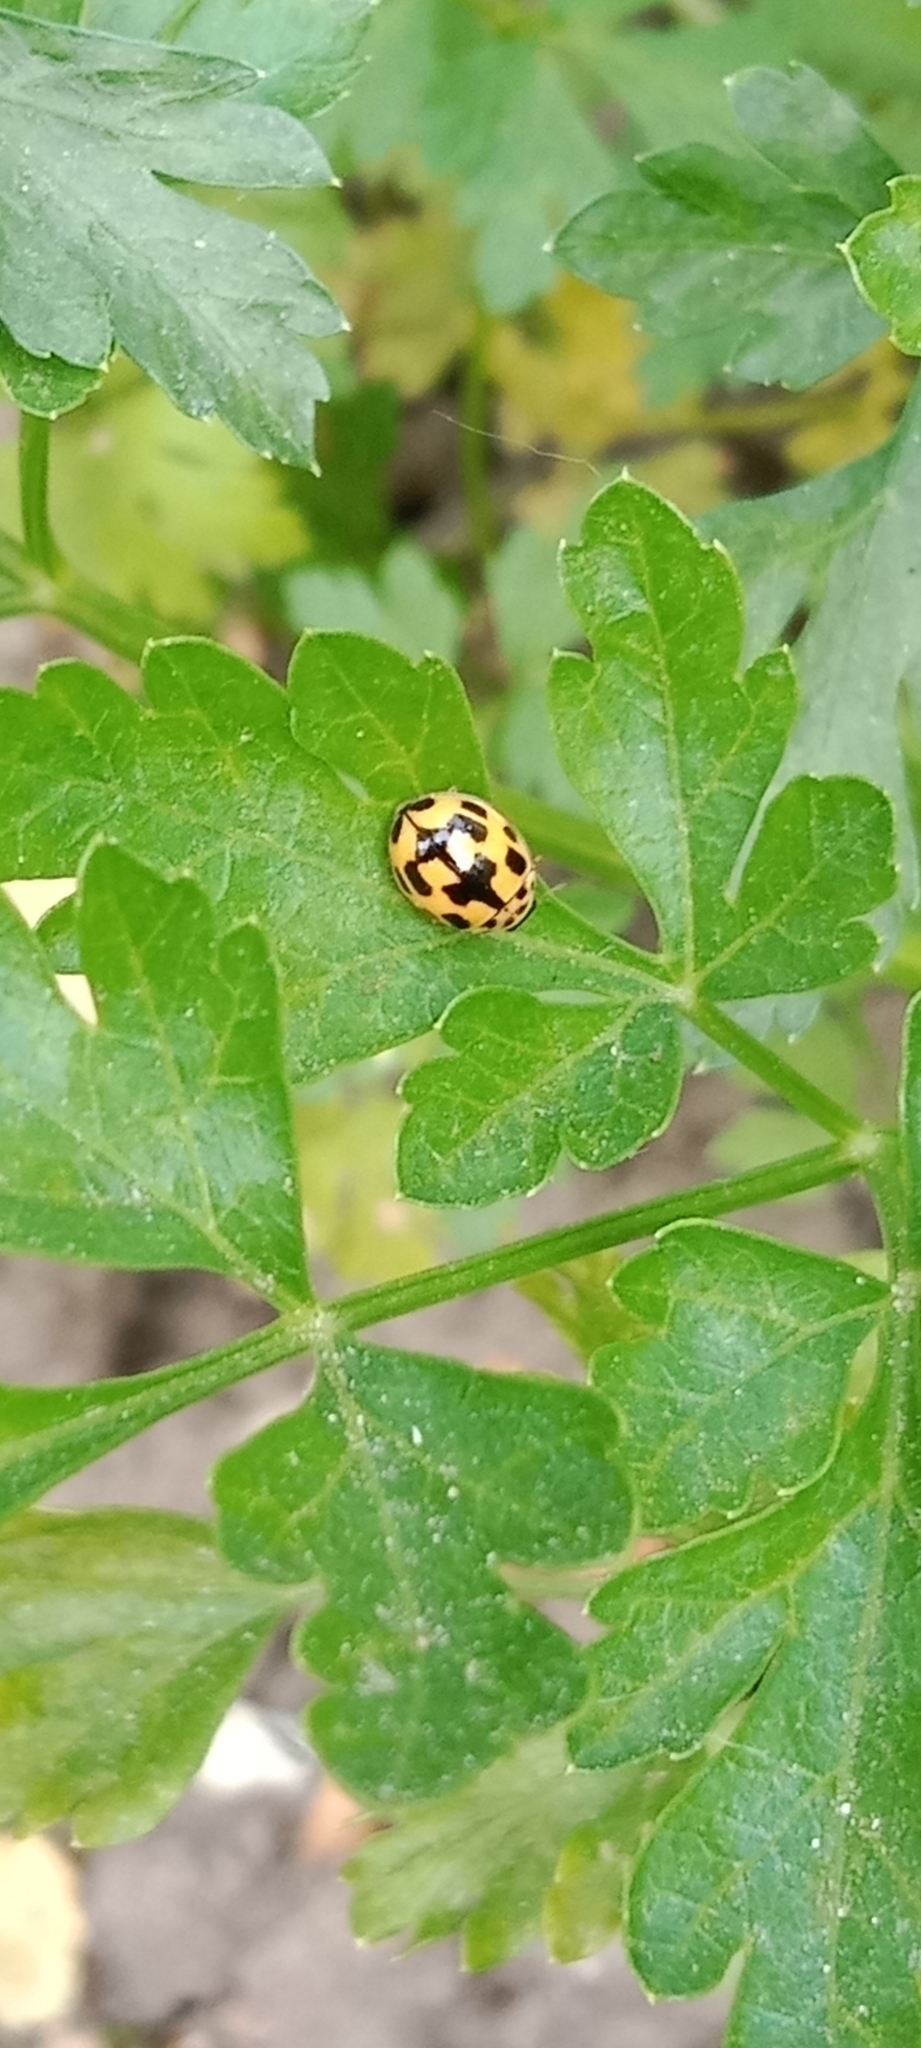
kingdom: Animalia
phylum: Arthropoda
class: Insecta
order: Coleoptera
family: Coccinellidae
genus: Propylaea
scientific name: Propylaea quatuordecimpunctata
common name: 14-spotted ladybird beetle
